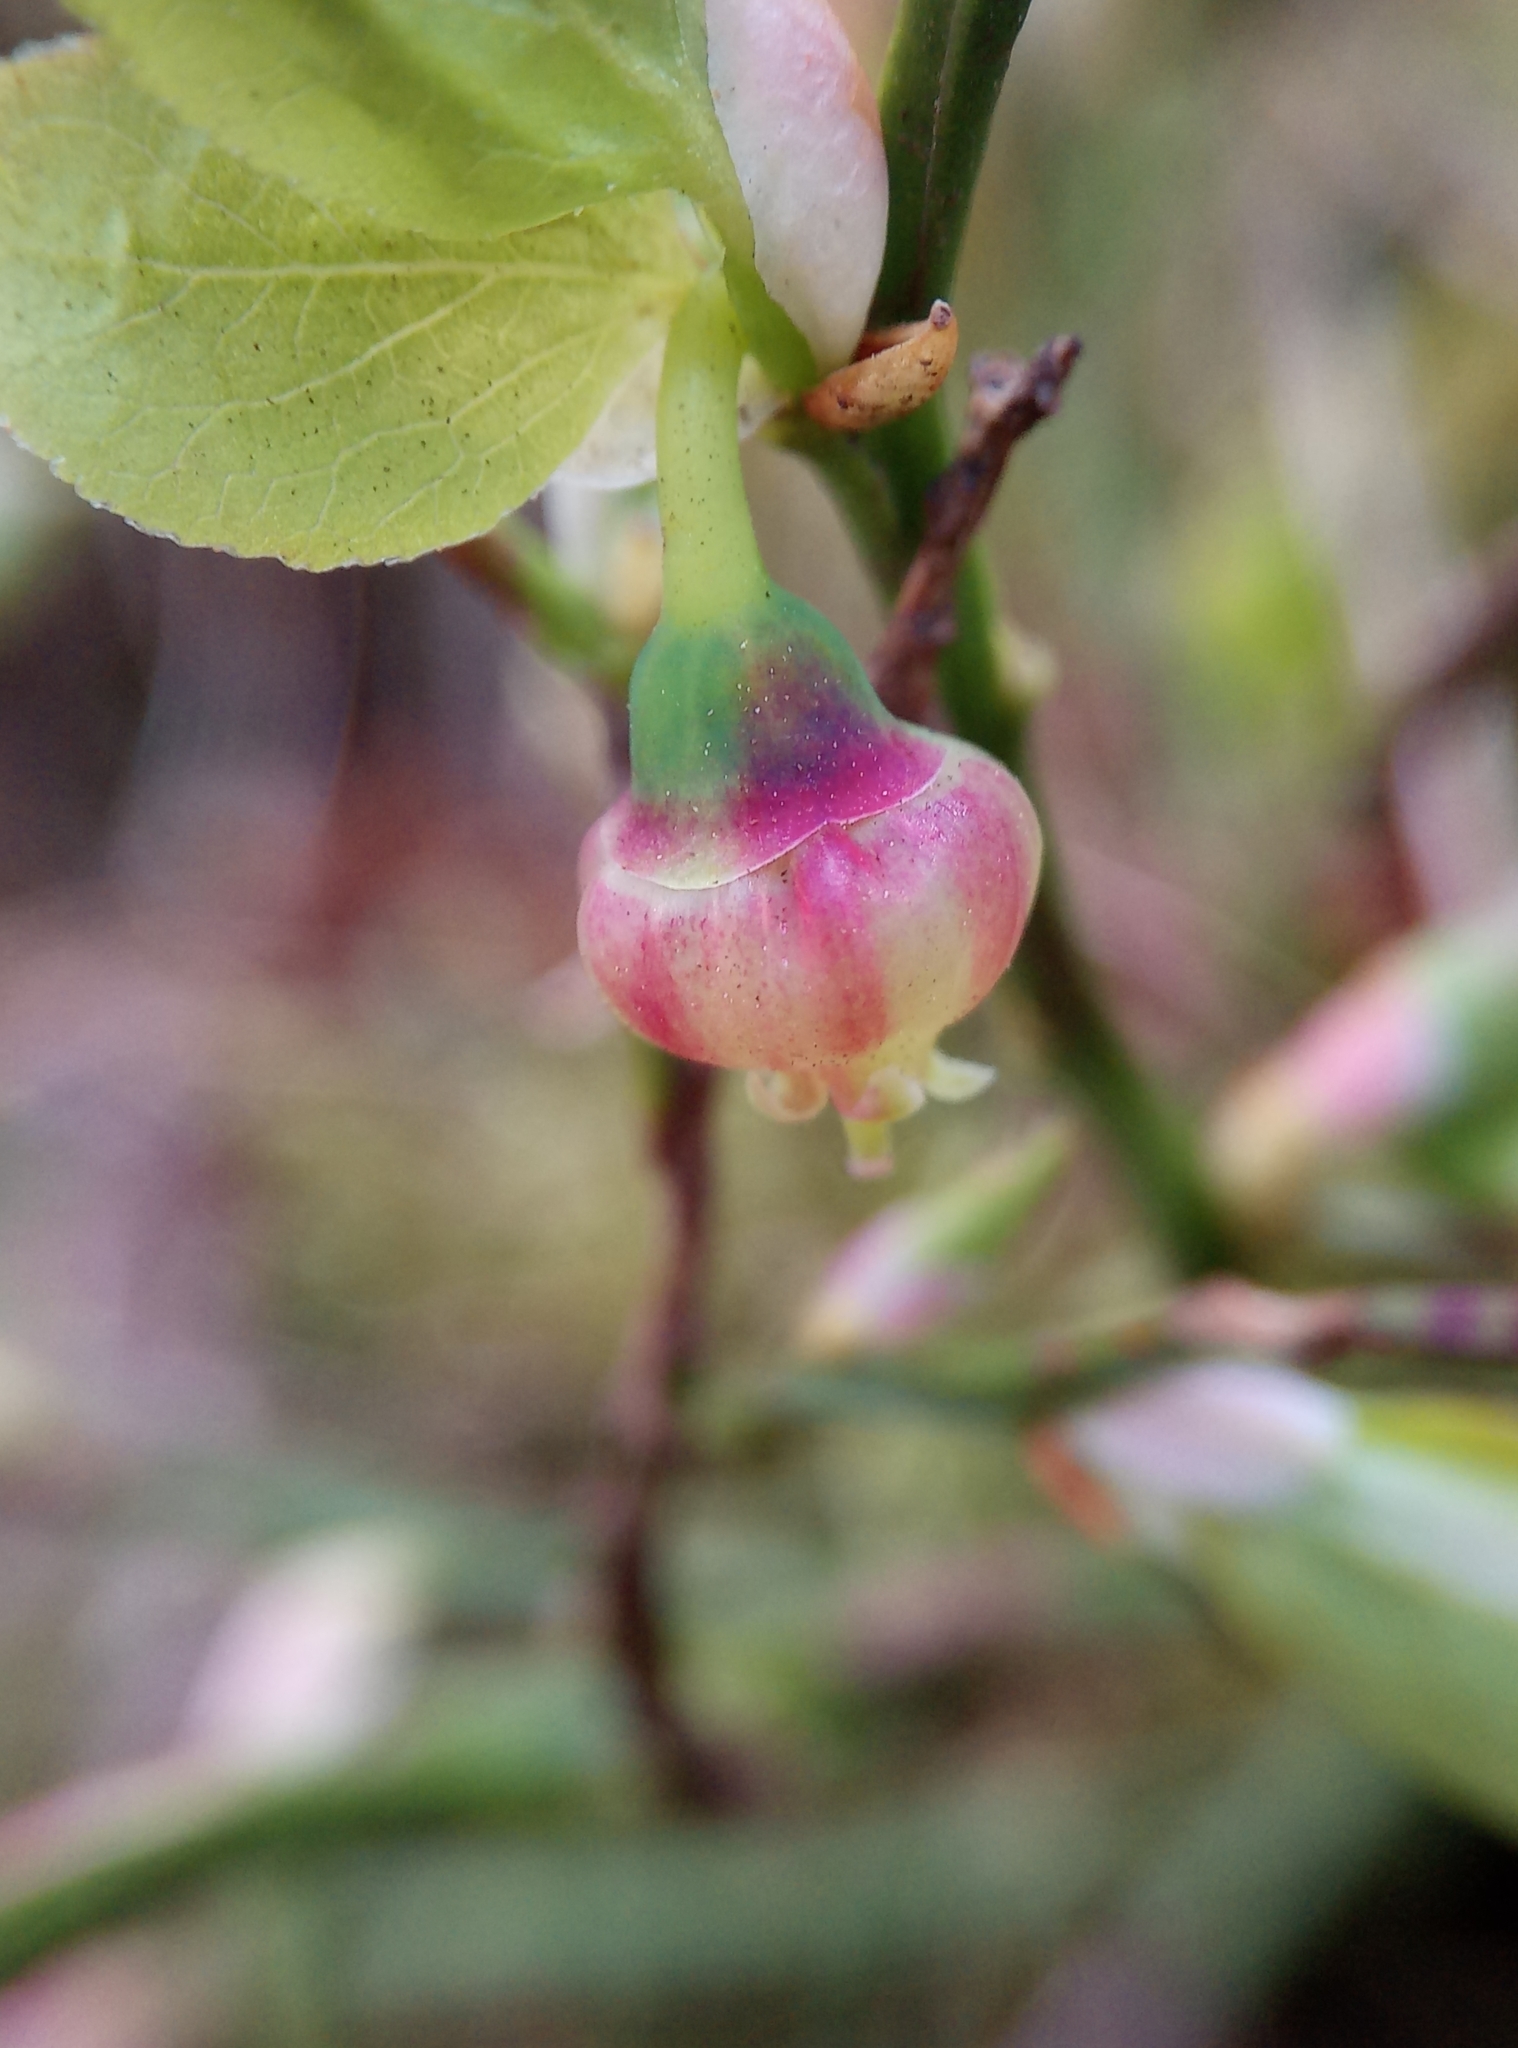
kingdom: Plantae
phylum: Tracheophyta
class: Magnoliopsida
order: Ericales
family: Ericaceae
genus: Vaccinium
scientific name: Vaccinium myrtillus
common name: Bilberry
